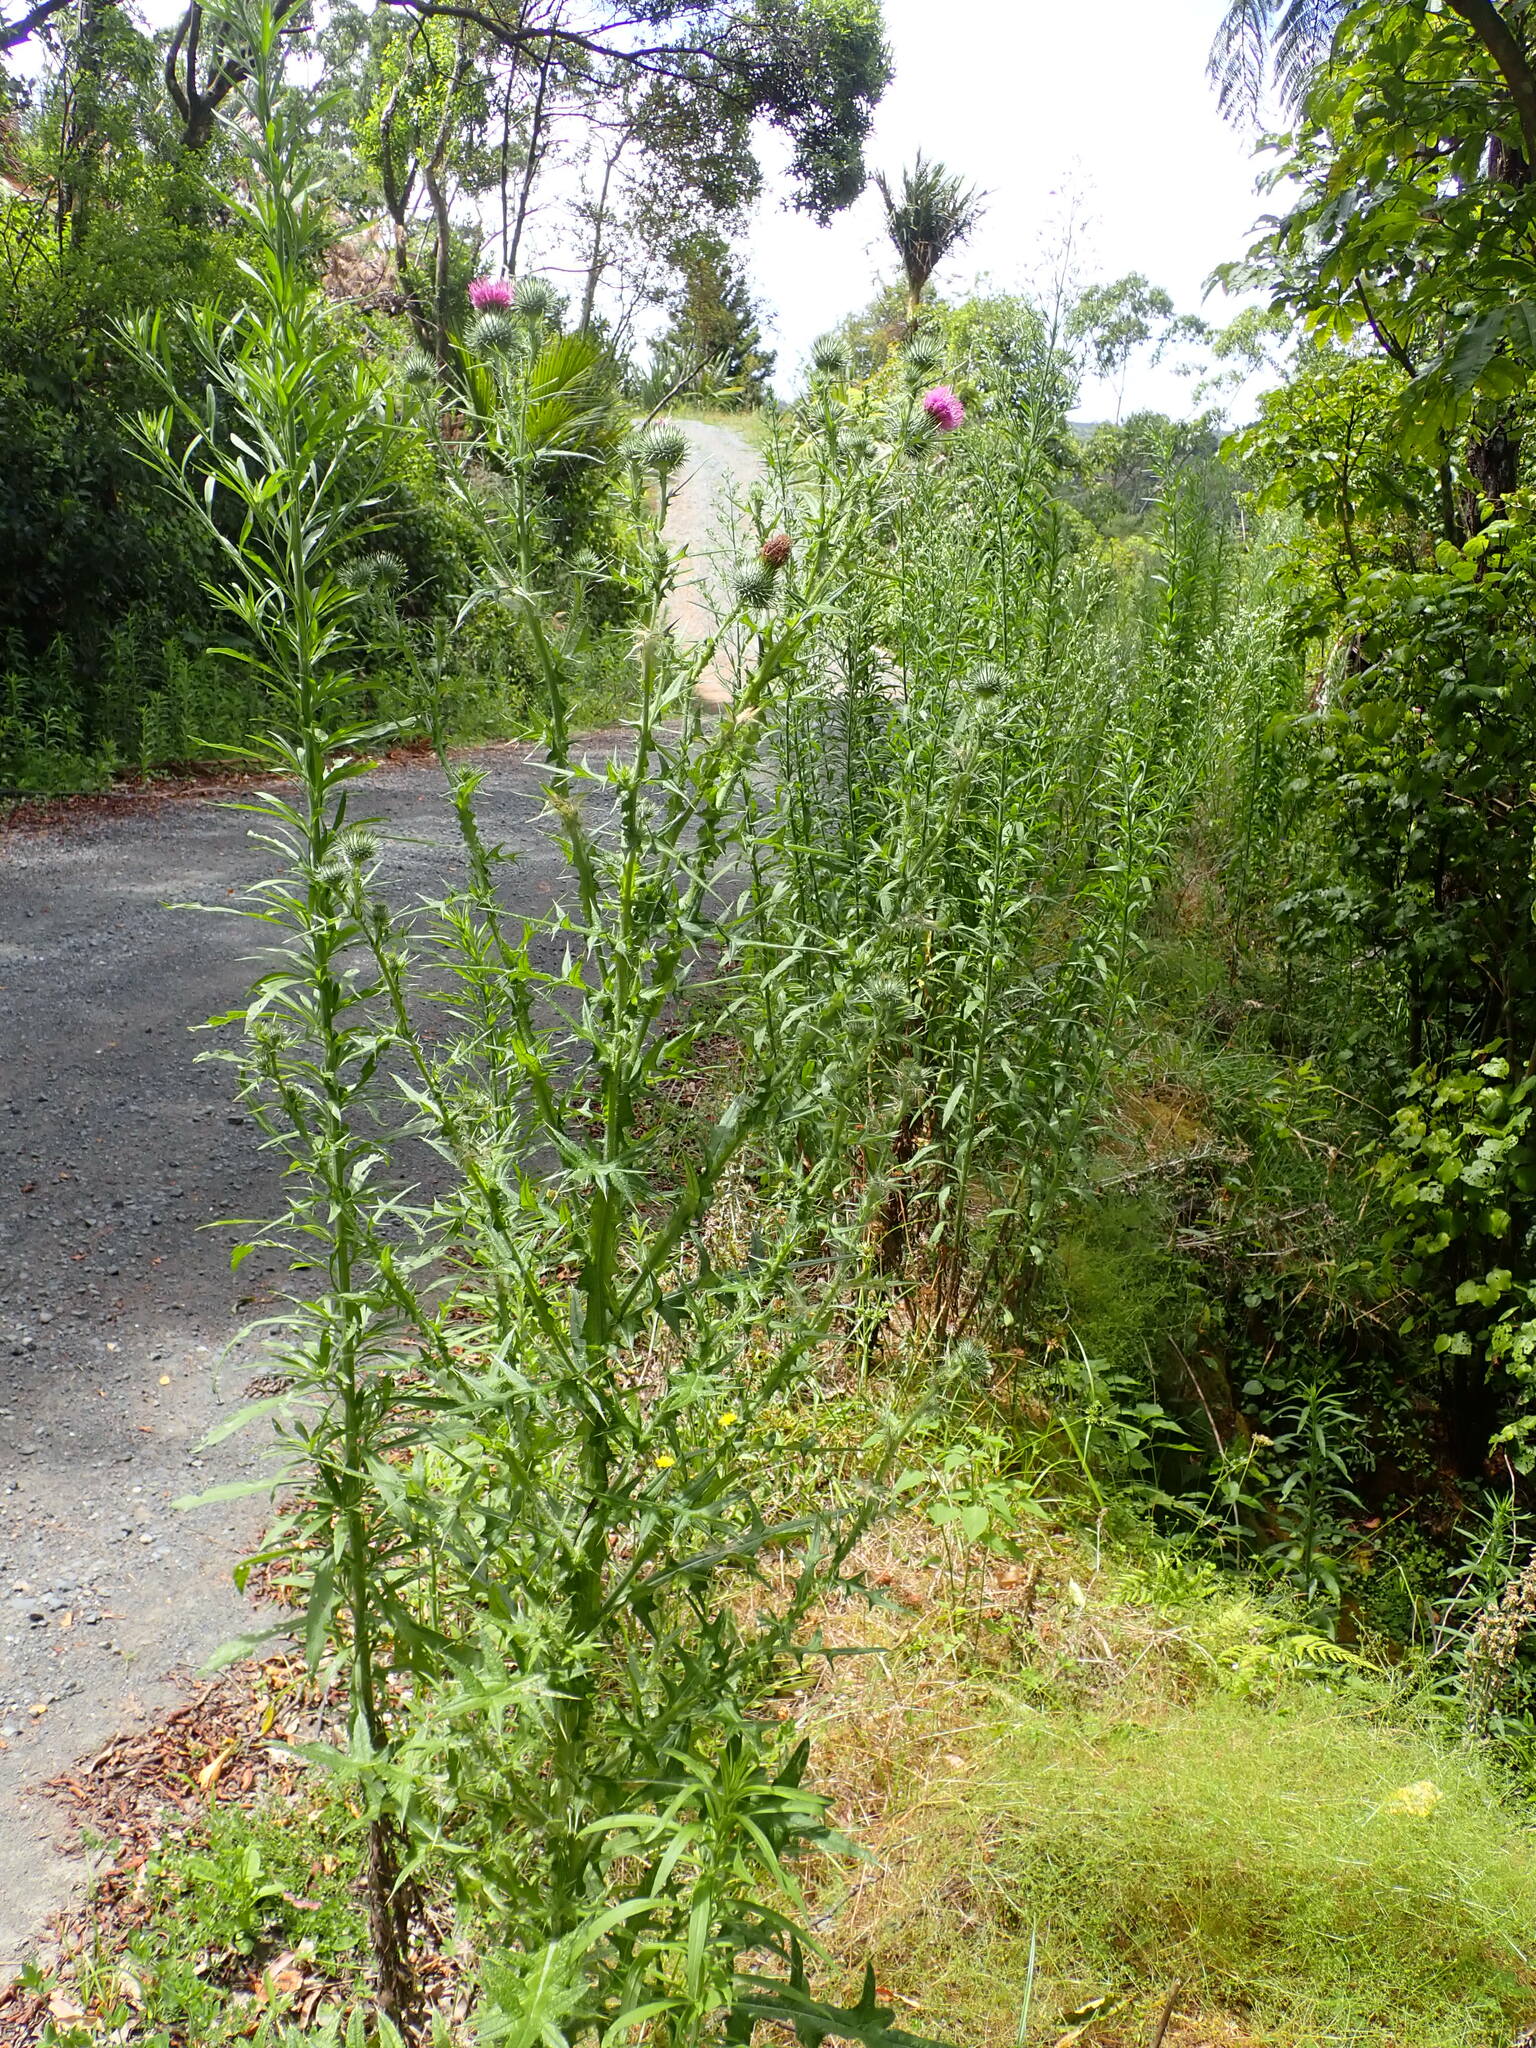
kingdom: Plantae
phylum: Tracheophyta
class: Magnoliopsida
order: Asterales
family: Asteraceae
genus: Cirsium
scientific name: Cirsium vulgare
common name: Bull thistle
